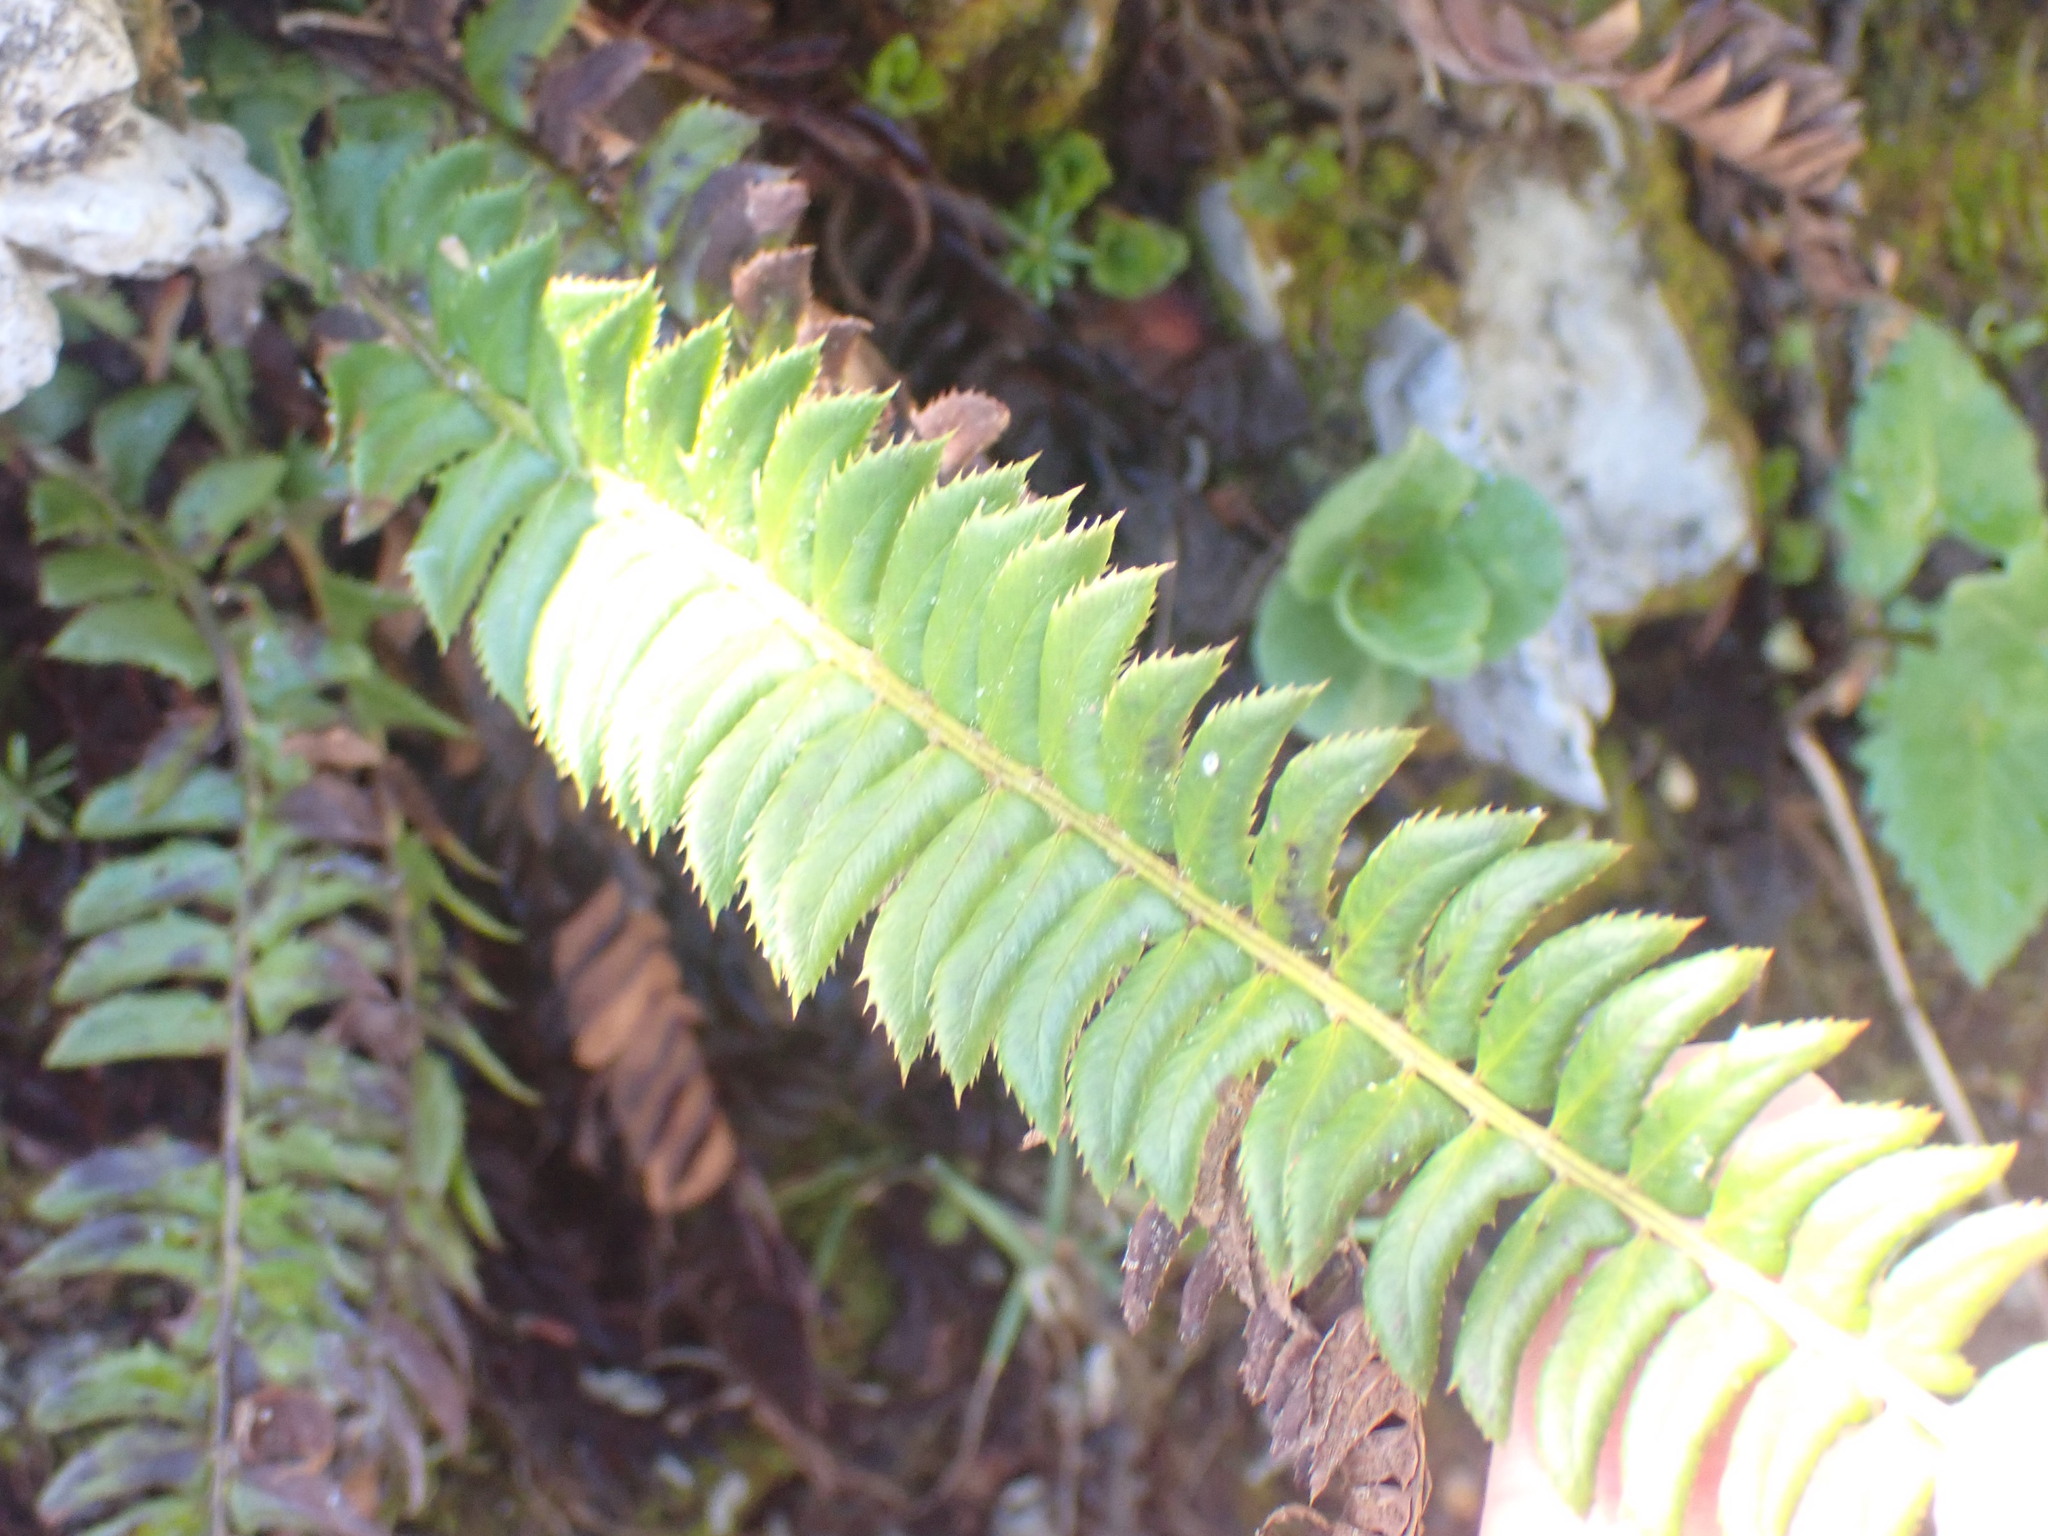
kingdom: Plantae
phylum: Tracheophyta
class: Polypodiopsida
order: Polypodiales
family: Dryopteridaceae
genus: Polystichum
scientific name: Polystichum lonchitis
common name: Holly fern
